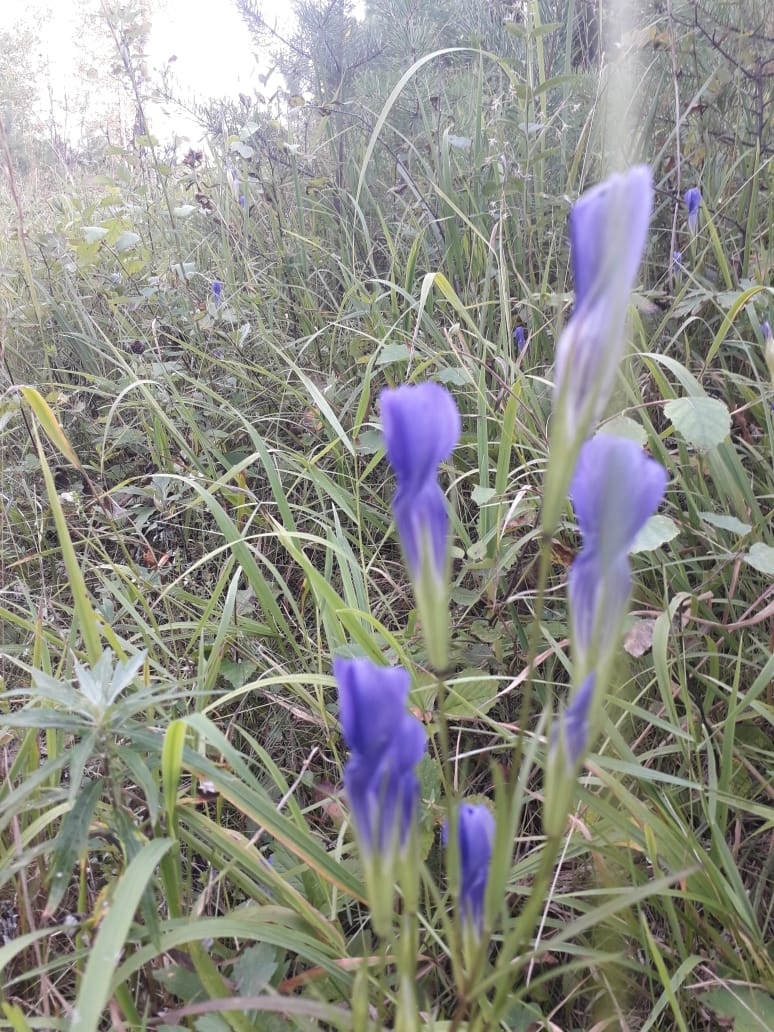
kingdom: Plantae
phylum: Tracheophyta
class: Magnoliopsida
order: Gentianales
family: Gentianaceae
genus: Gentianopsis
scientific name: Gentianopsis barbata
